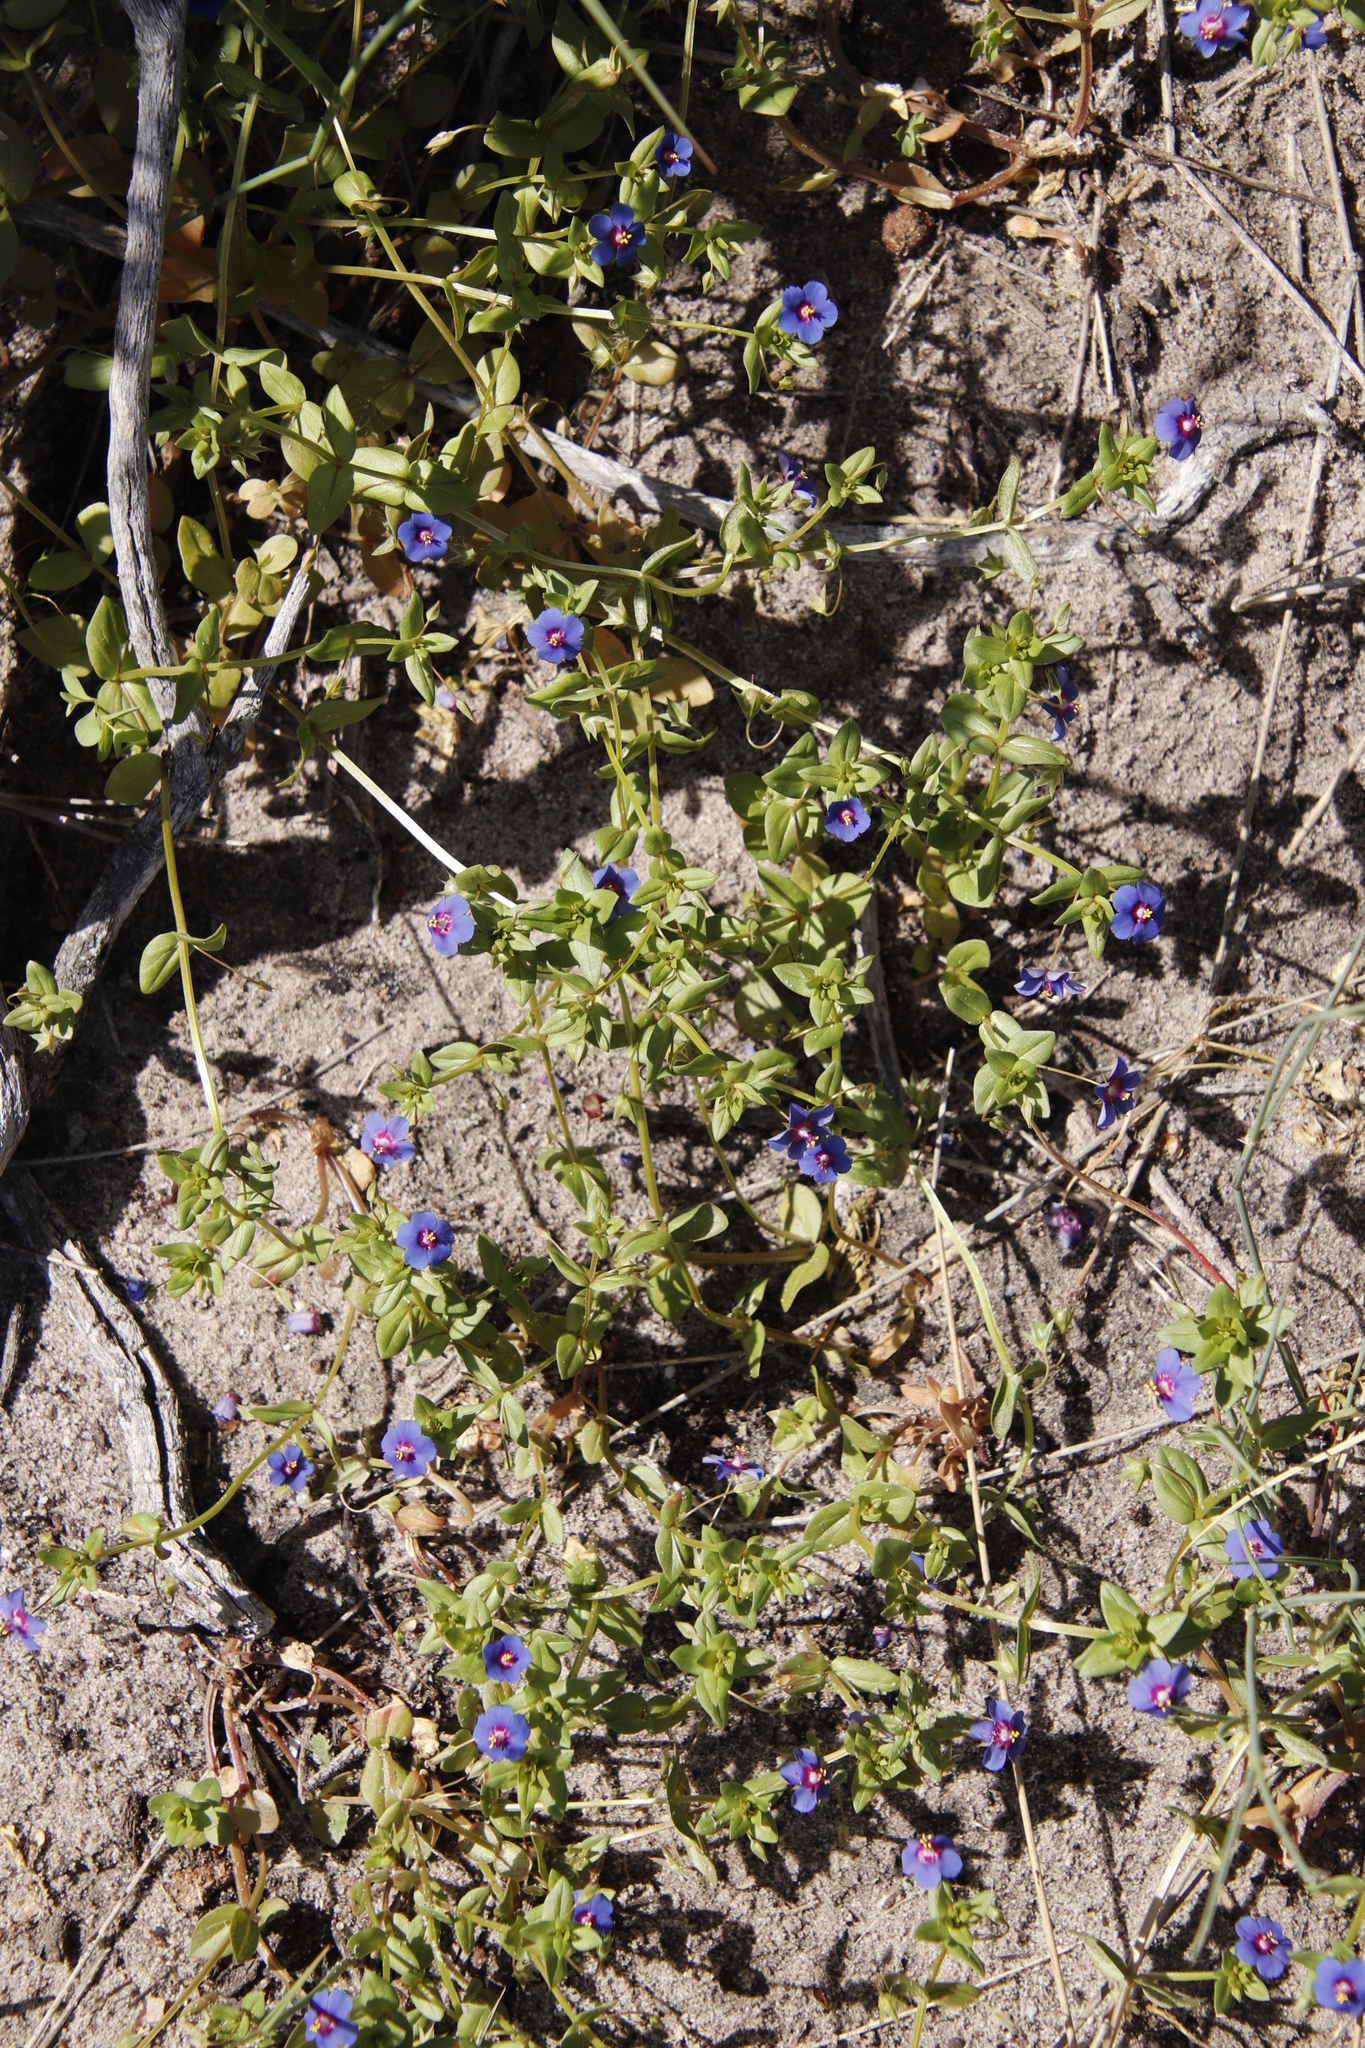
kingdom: Plantae
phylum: Tracheophyta
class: Magnoliopsida
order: Ericales
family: Primulaceae
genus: Lysimachia
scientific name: Lysimachia loeflingii
